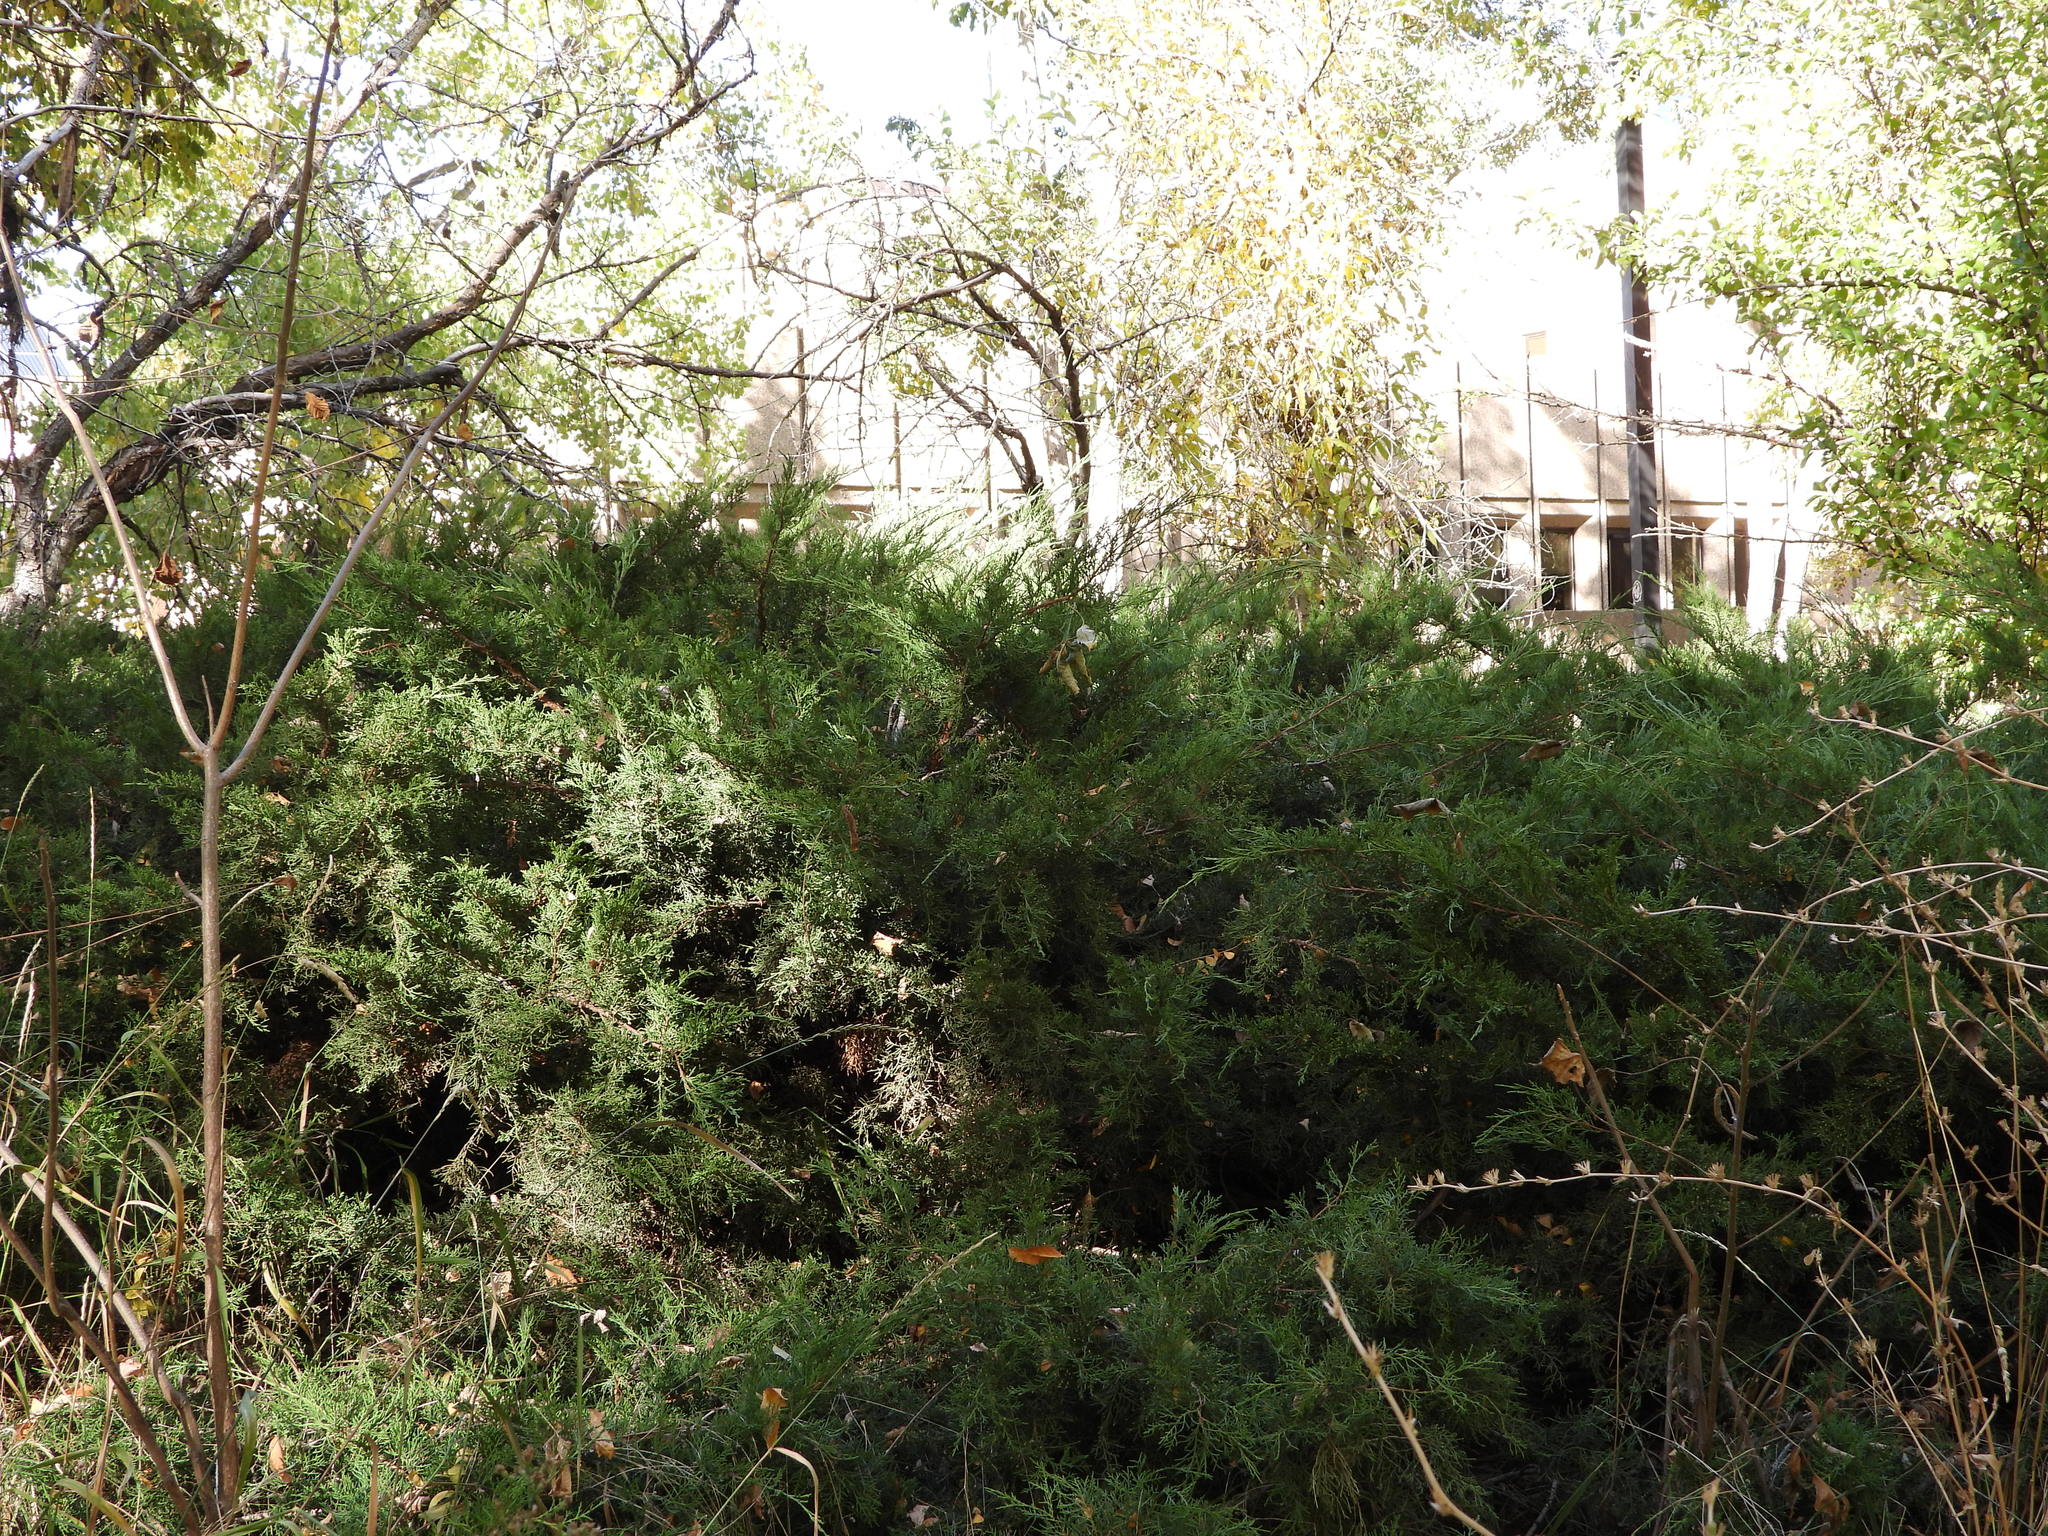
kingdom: Plantae
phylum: Tracheophyta
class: Pinopsida
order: Pinales
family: Cupressaceae
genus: Juniperus
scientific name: Juniperus communis
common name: Common juniper
